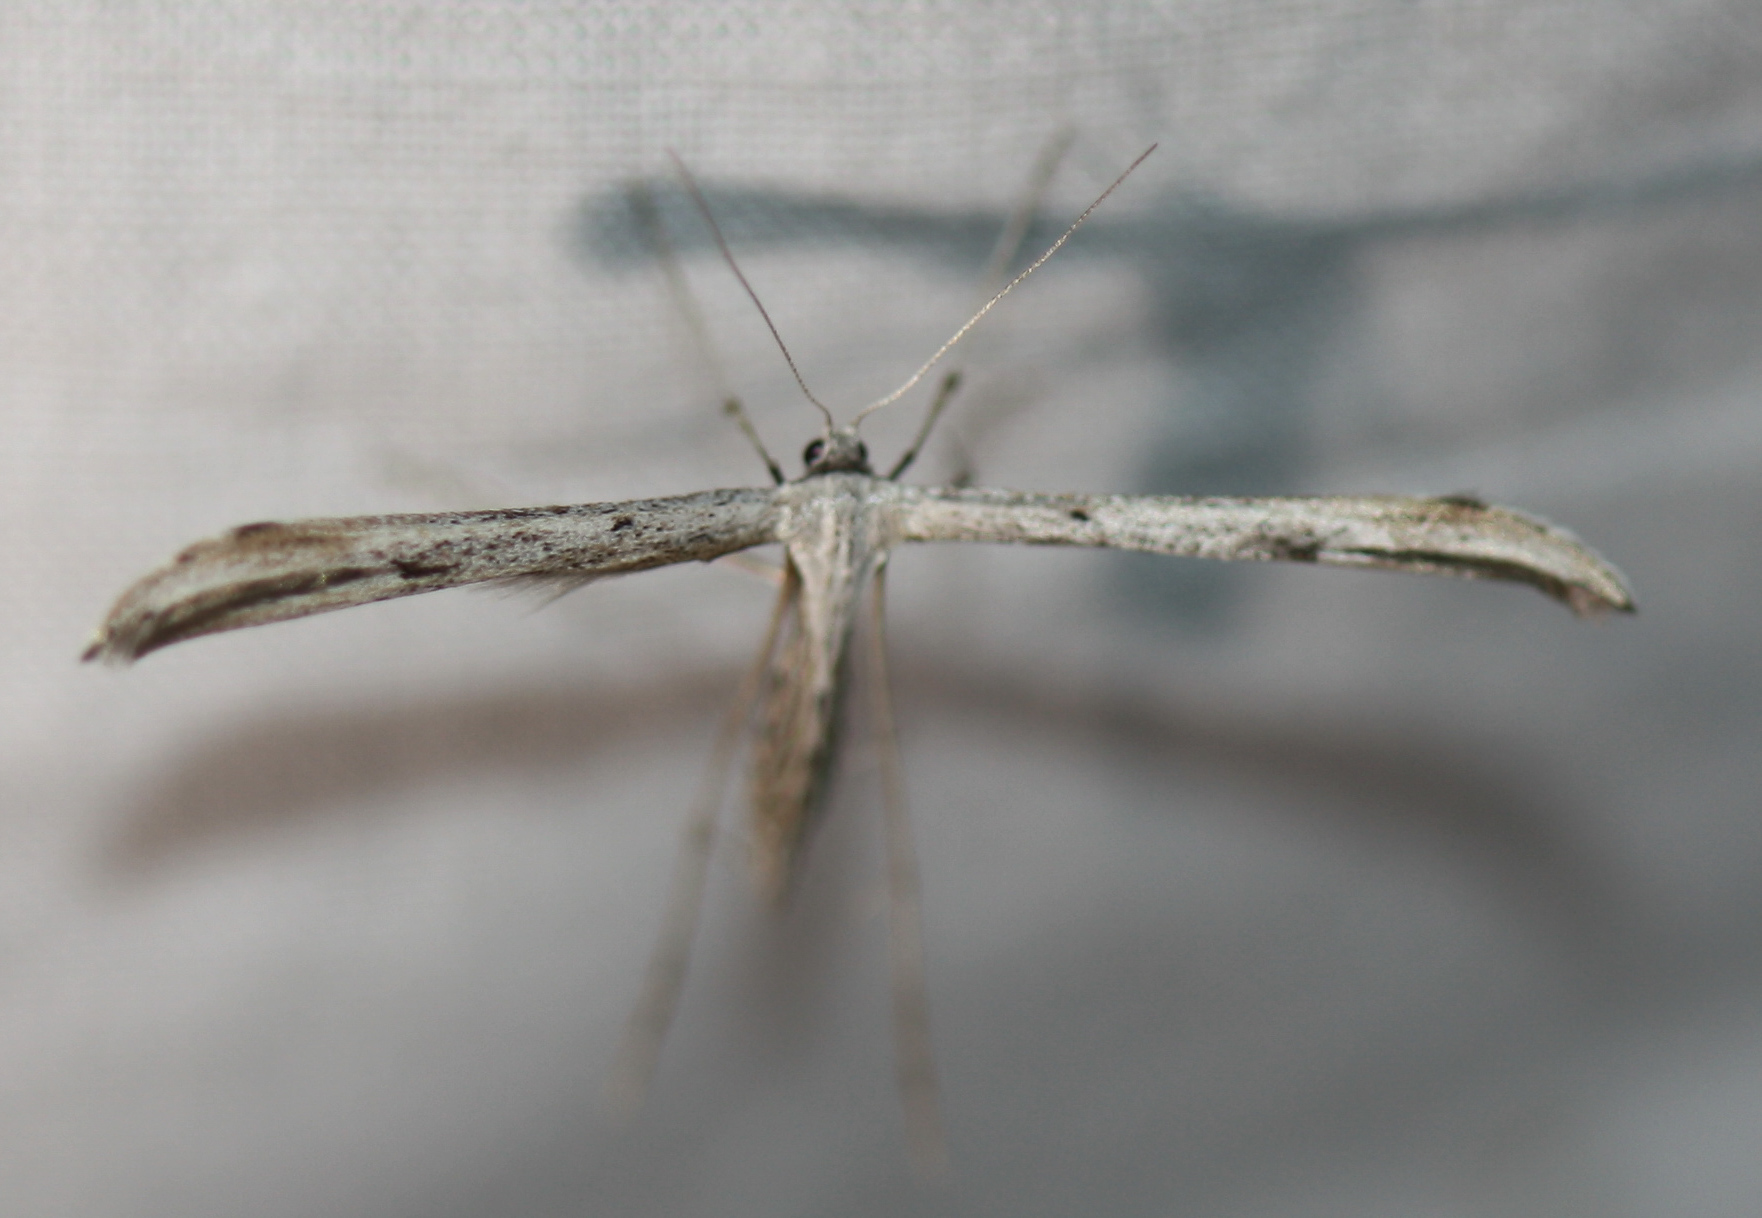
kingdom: Animalia
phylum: Arthropoda
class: Insecta
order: Lepidoptera
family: Pterophoridae
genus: Emmelina
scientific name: Emmelina monodactyla
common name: Common plume
